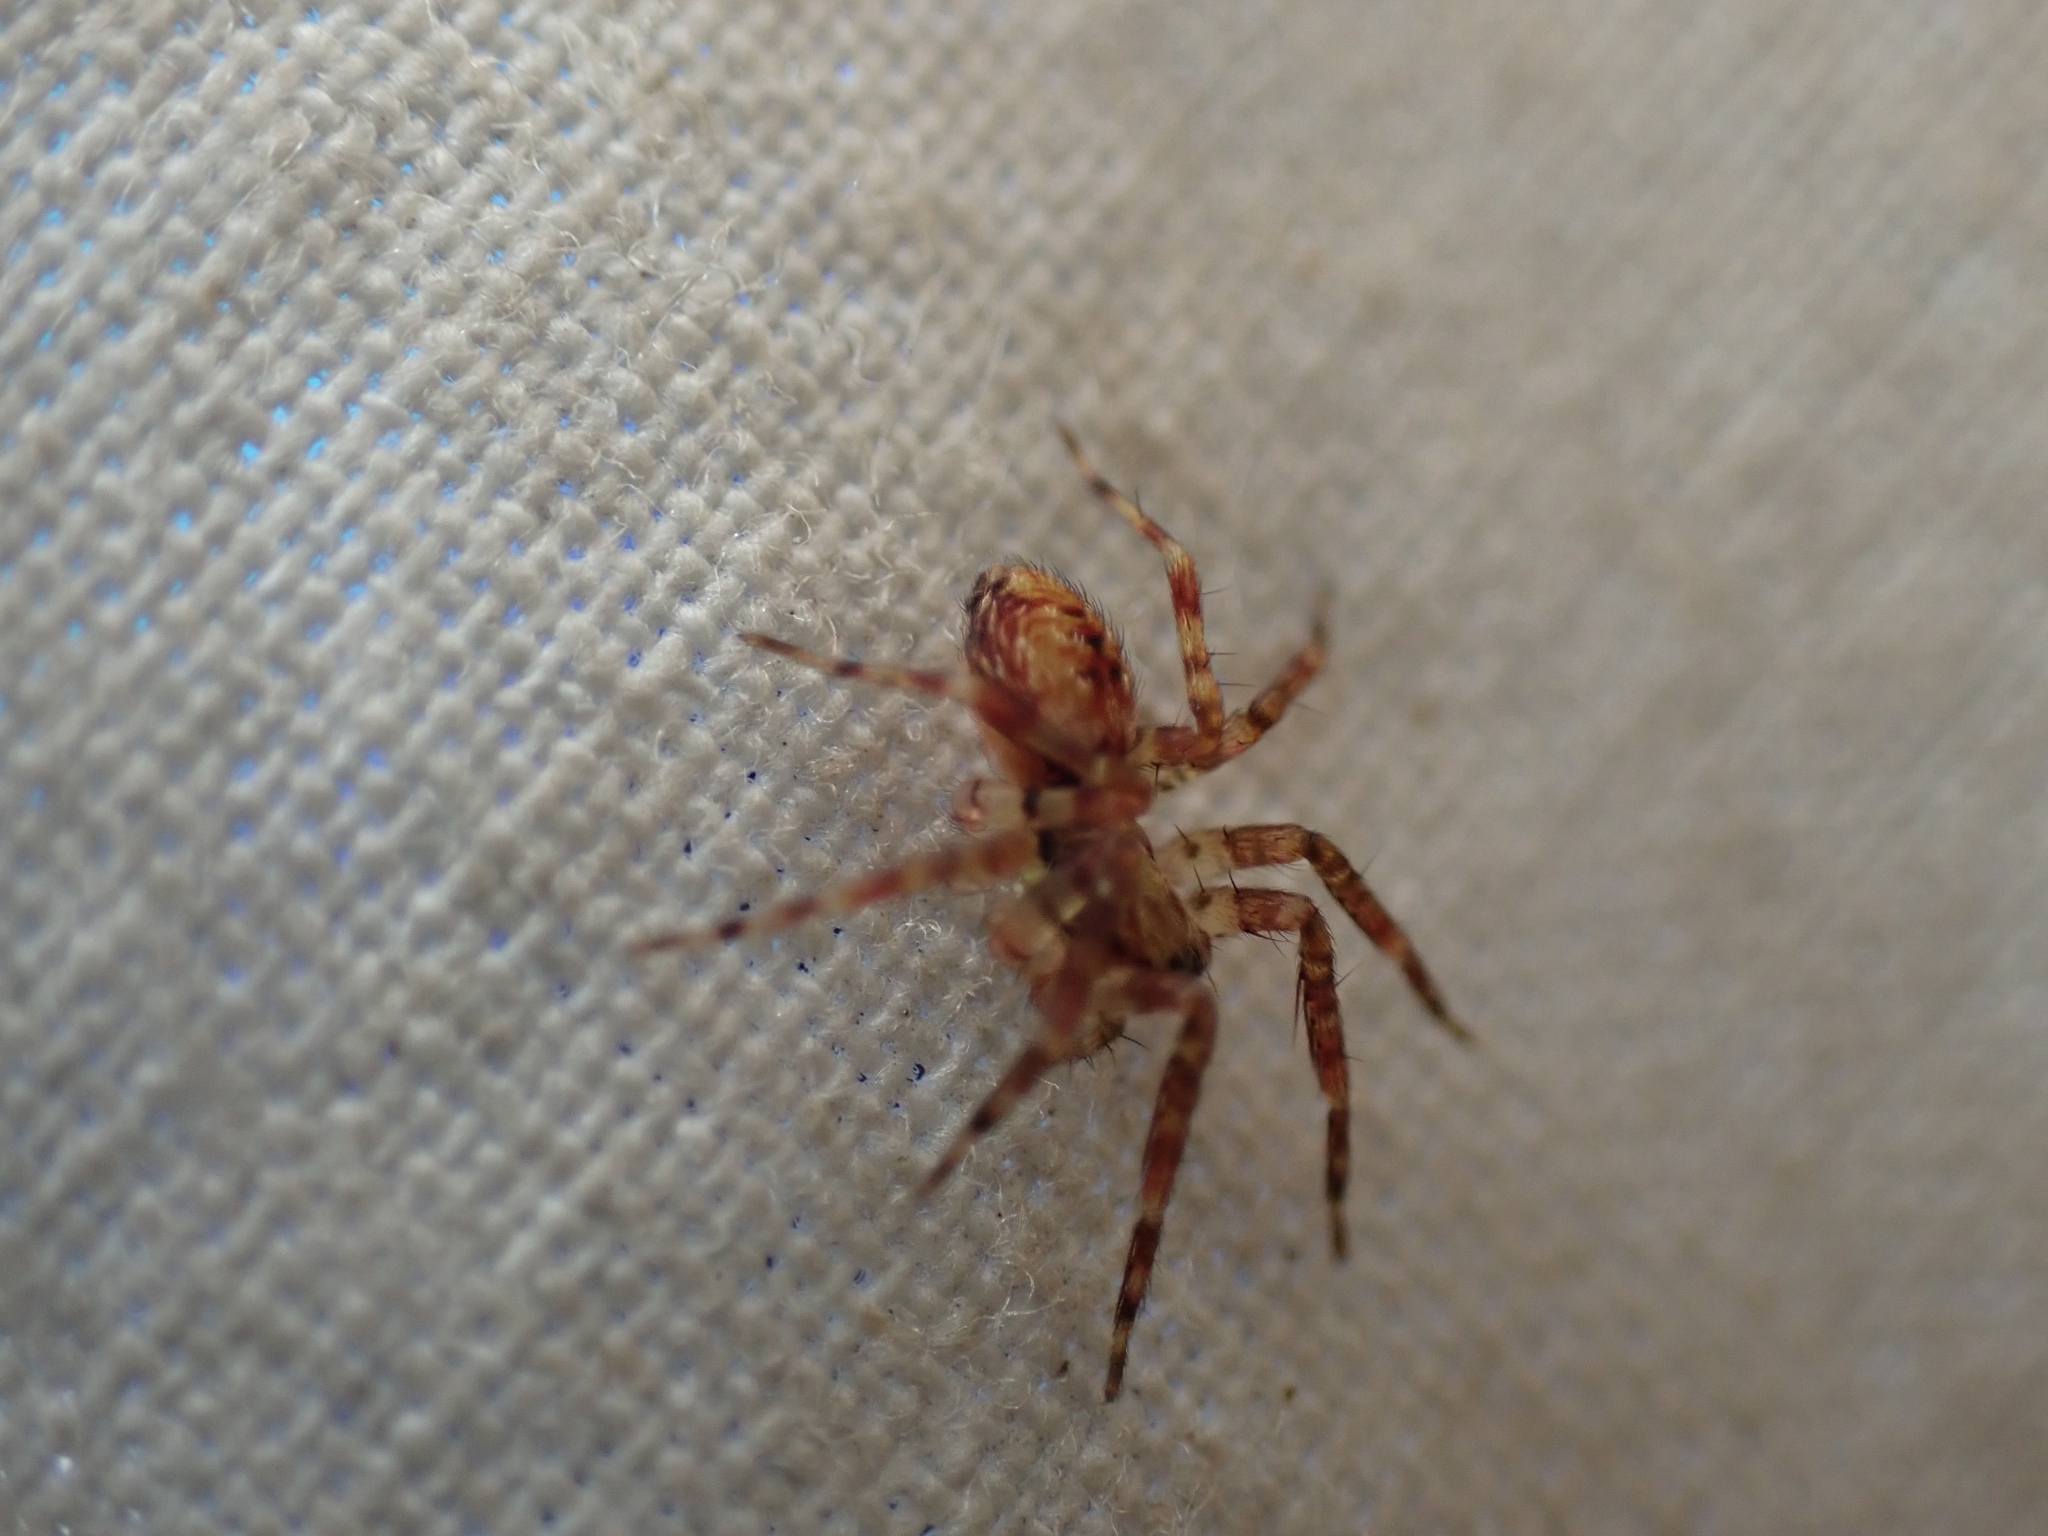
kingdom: Animalia
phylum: Arthropoda
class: Arachnida
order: Araneae
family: Cybaeidae
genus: Dirksia
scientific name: Dirksia cinctipes
